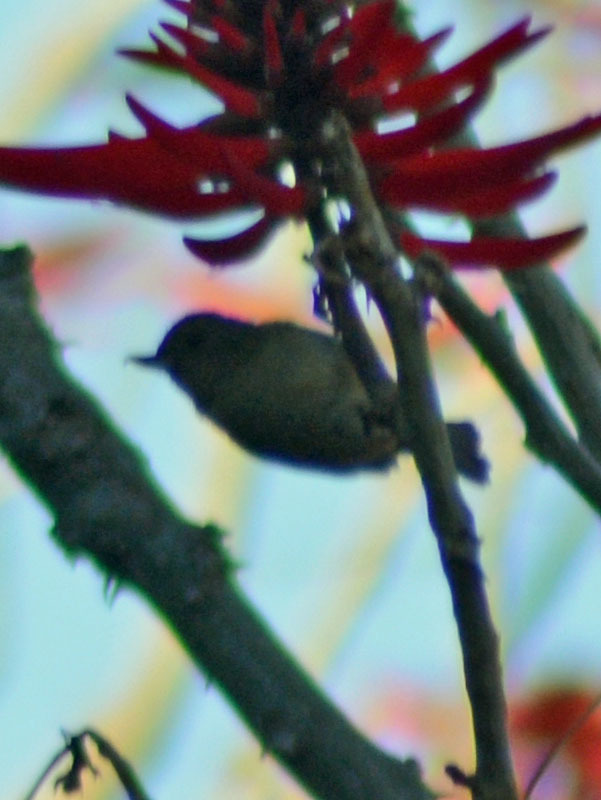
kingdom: Animalia
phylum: Chordata
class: Aves
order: Passeriformes
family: Thraupidae
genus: Diglossa
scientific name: Diglossa baritula
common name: Cinnamon-bellied flowerpiercer
